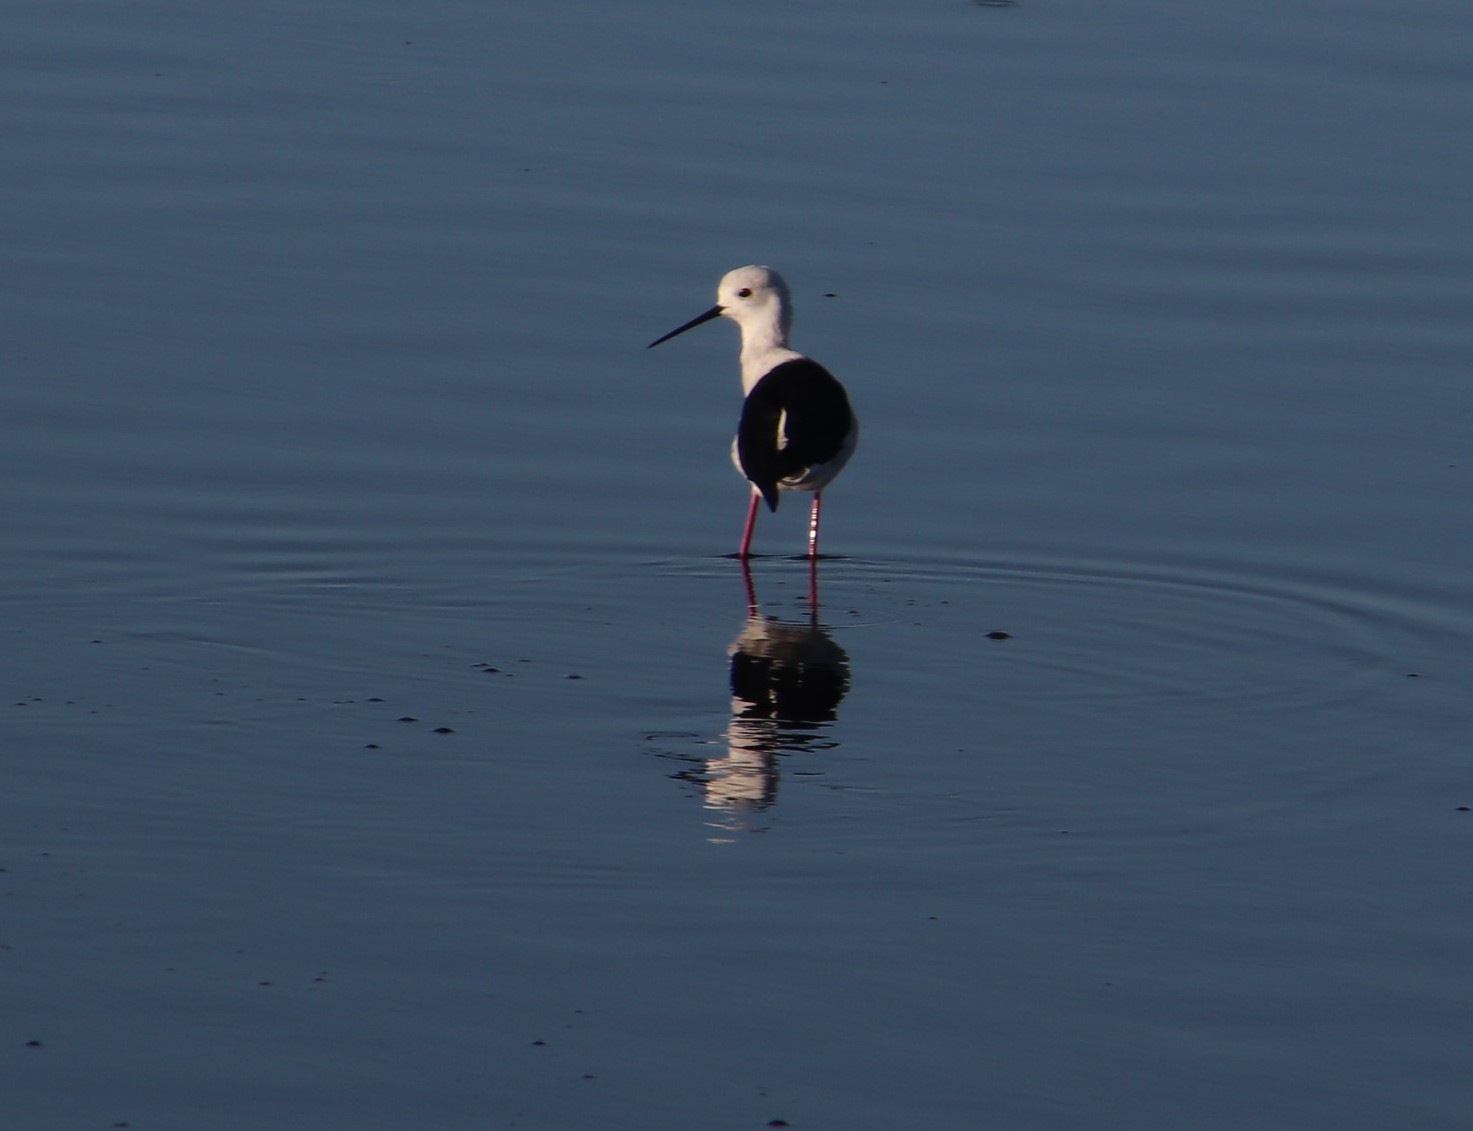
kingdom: Animalia
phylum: Chordata
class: Aves
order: Charadriiformes
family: Recurvirostridae
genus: Himantopus
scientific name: Himantopus himantopus
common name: Black-winged stilt
